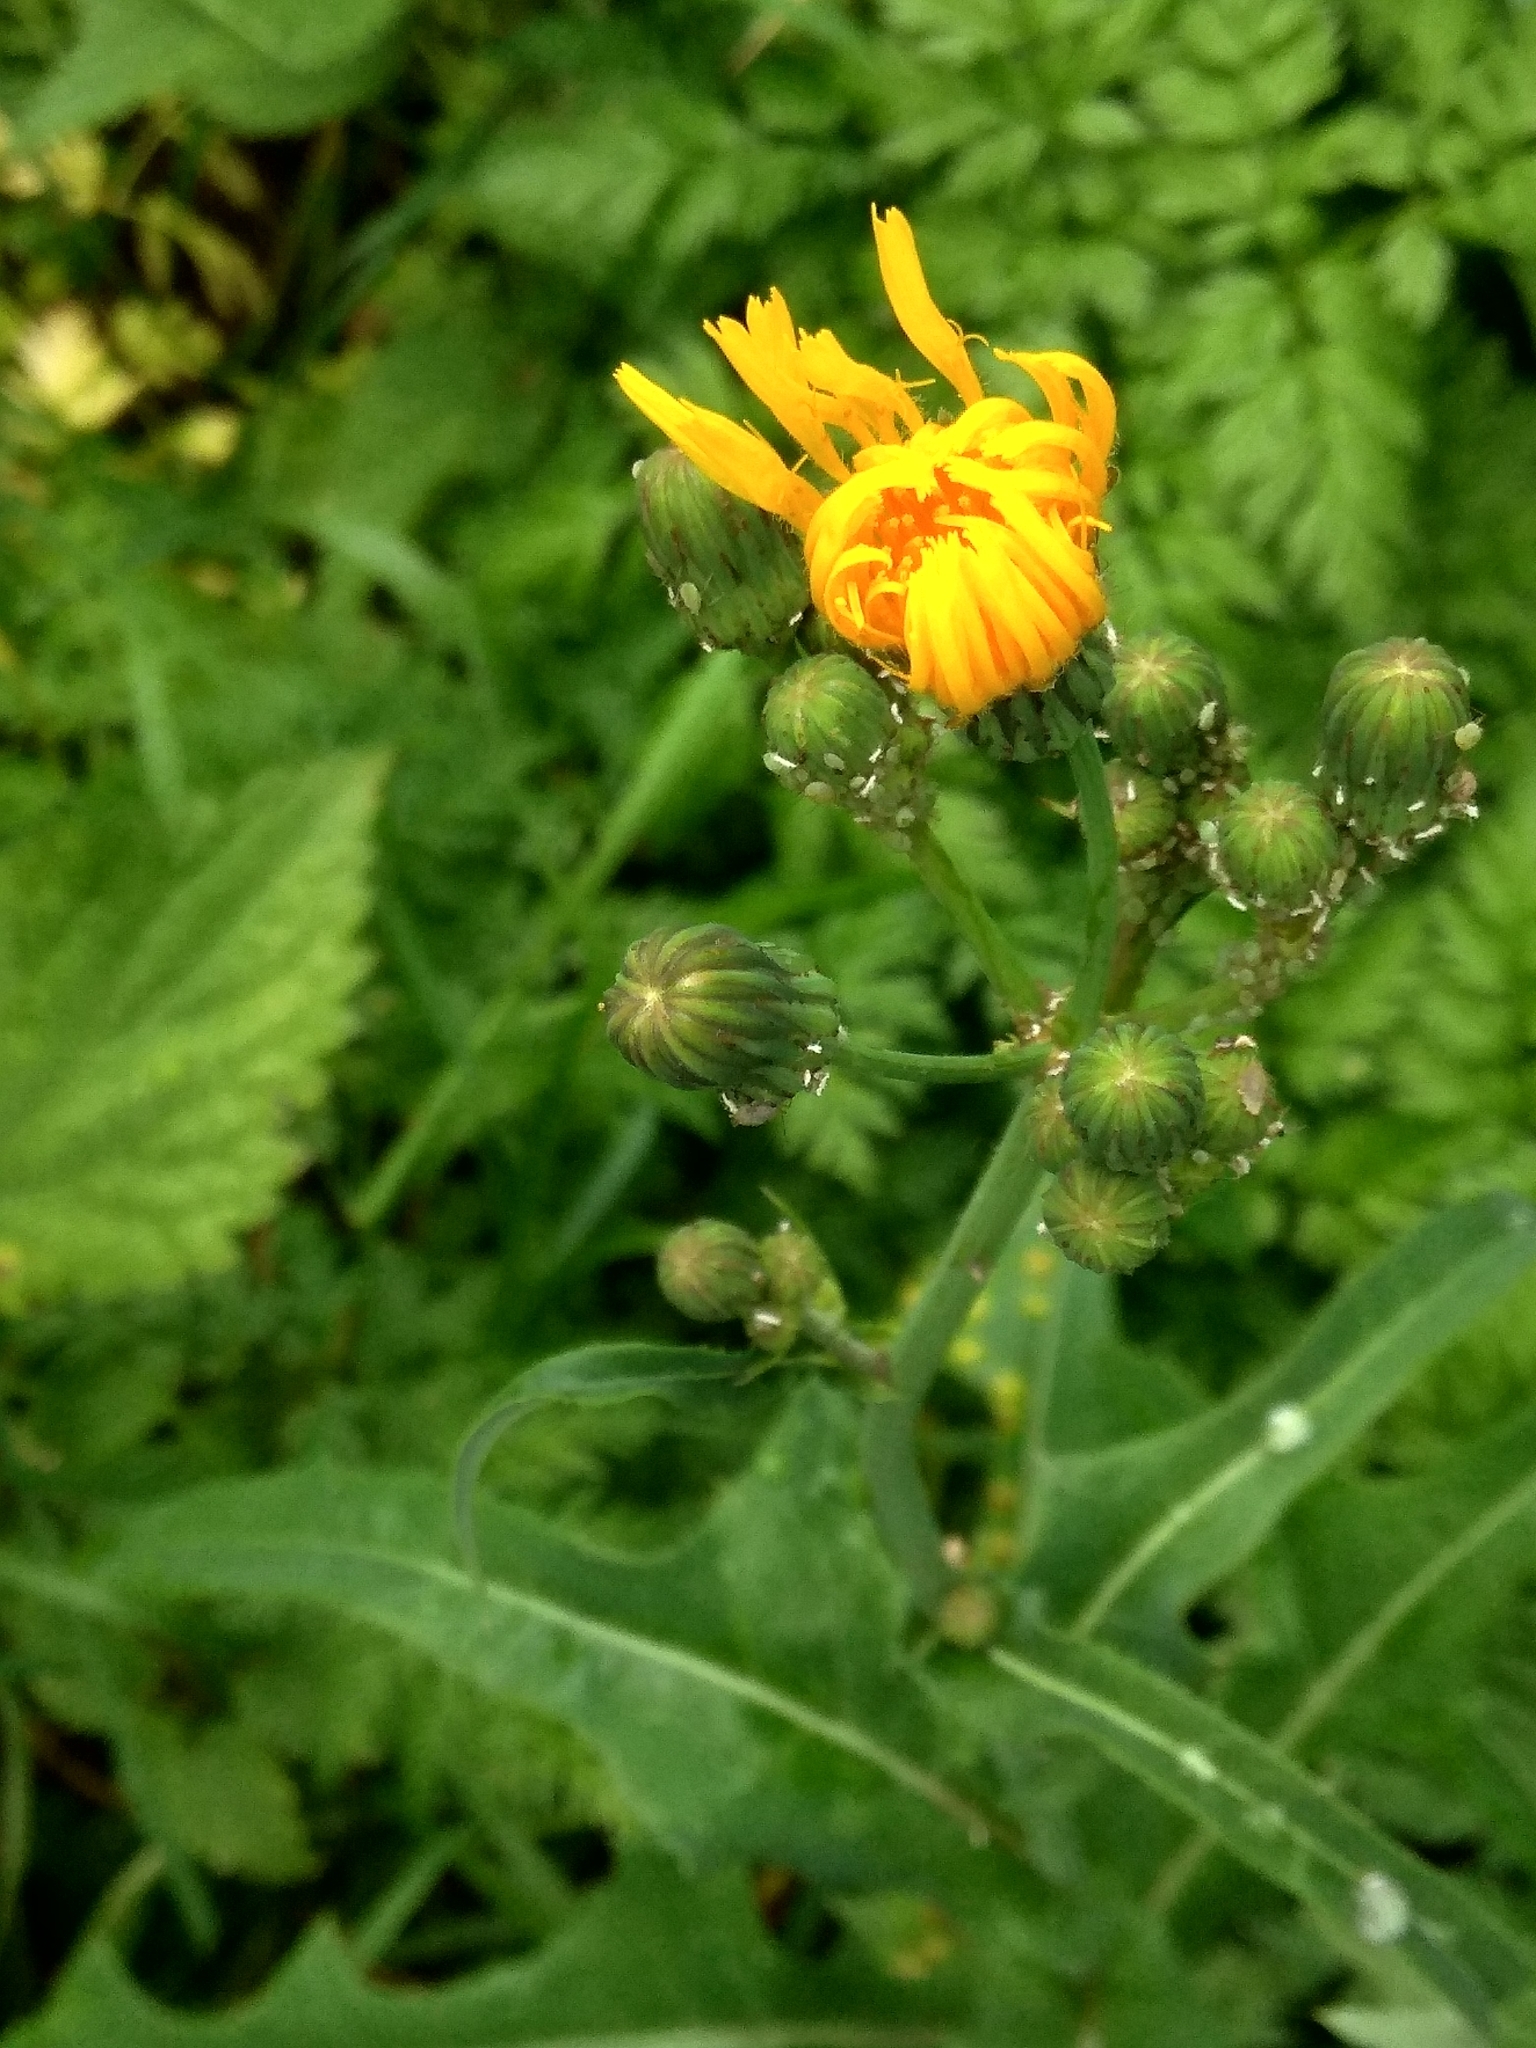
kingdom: Plantae
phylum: Tracheophyta
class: Magnoliopsida
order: Asterales
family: Asteraceae
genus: Sonchus
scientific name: Sonchus arvensis
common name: Perennial sow-thistle
